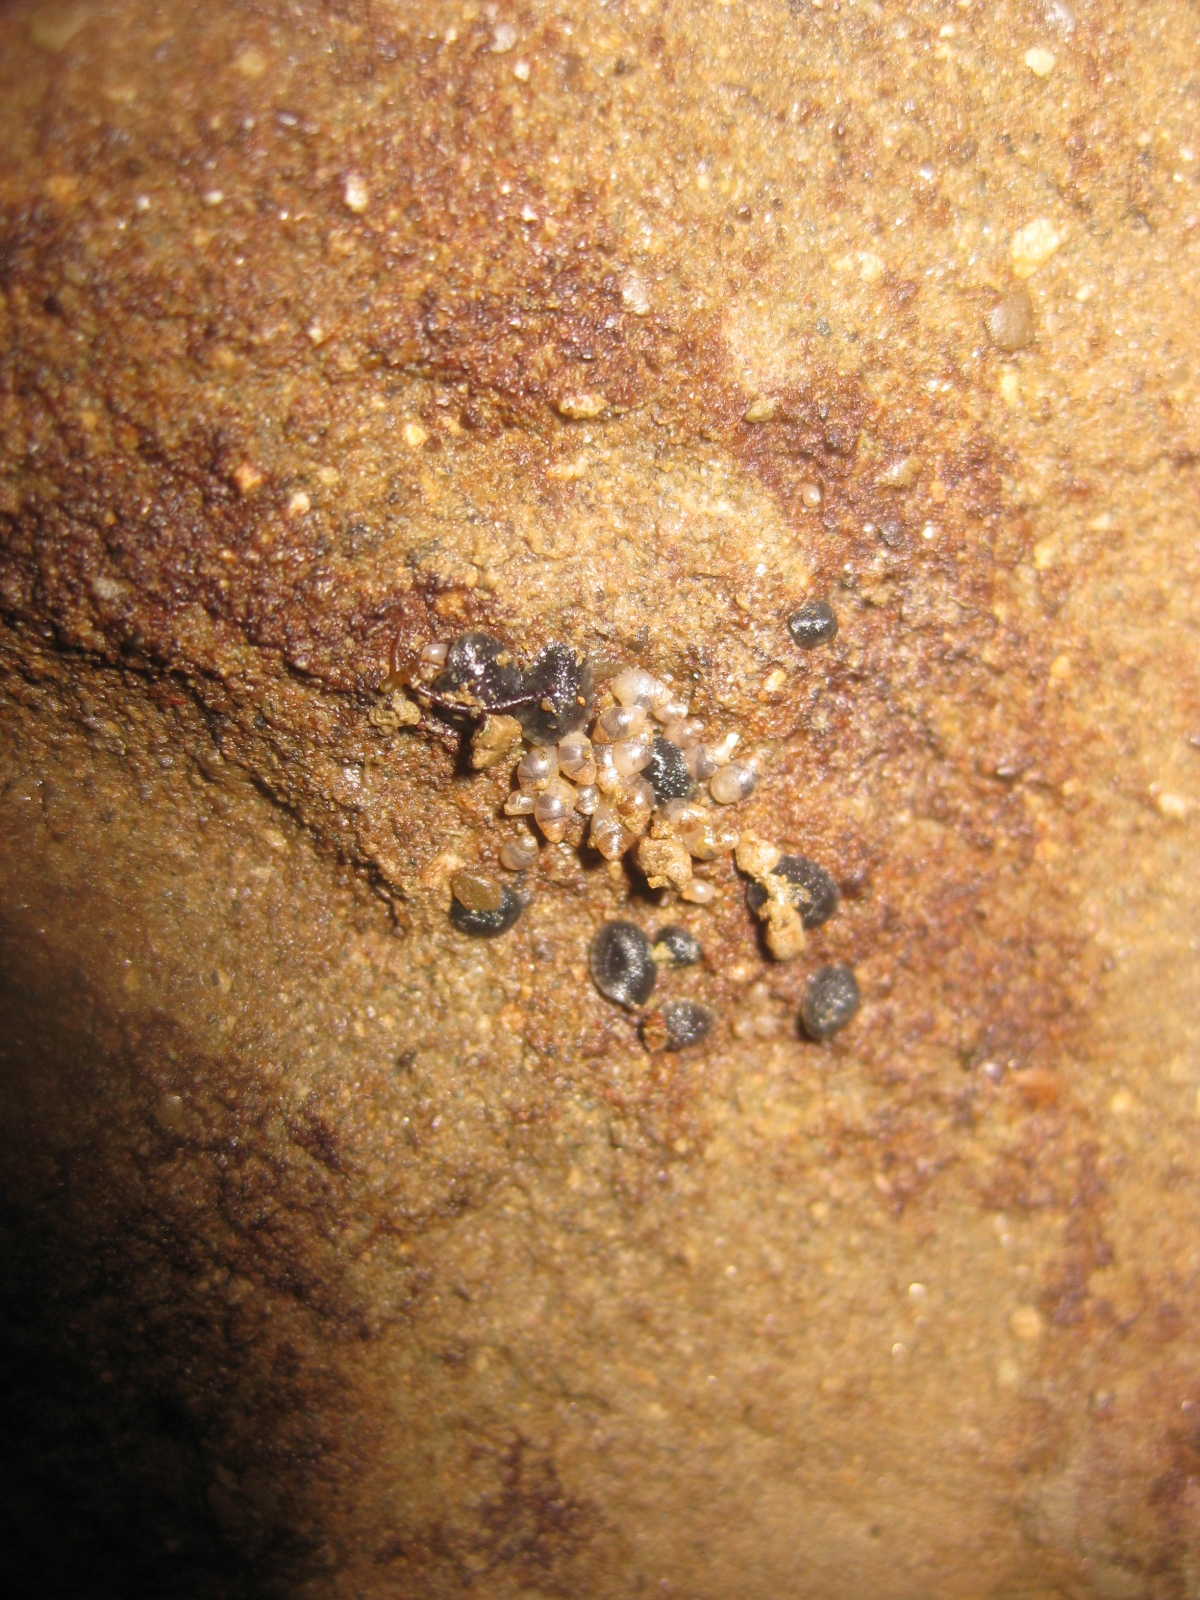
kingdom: Animalia
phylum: Mollusca
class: Gastropoda
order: Ellobiida
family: Ellobiidae
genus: Leuconopsis
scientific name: Leuconopsis obsoleta
